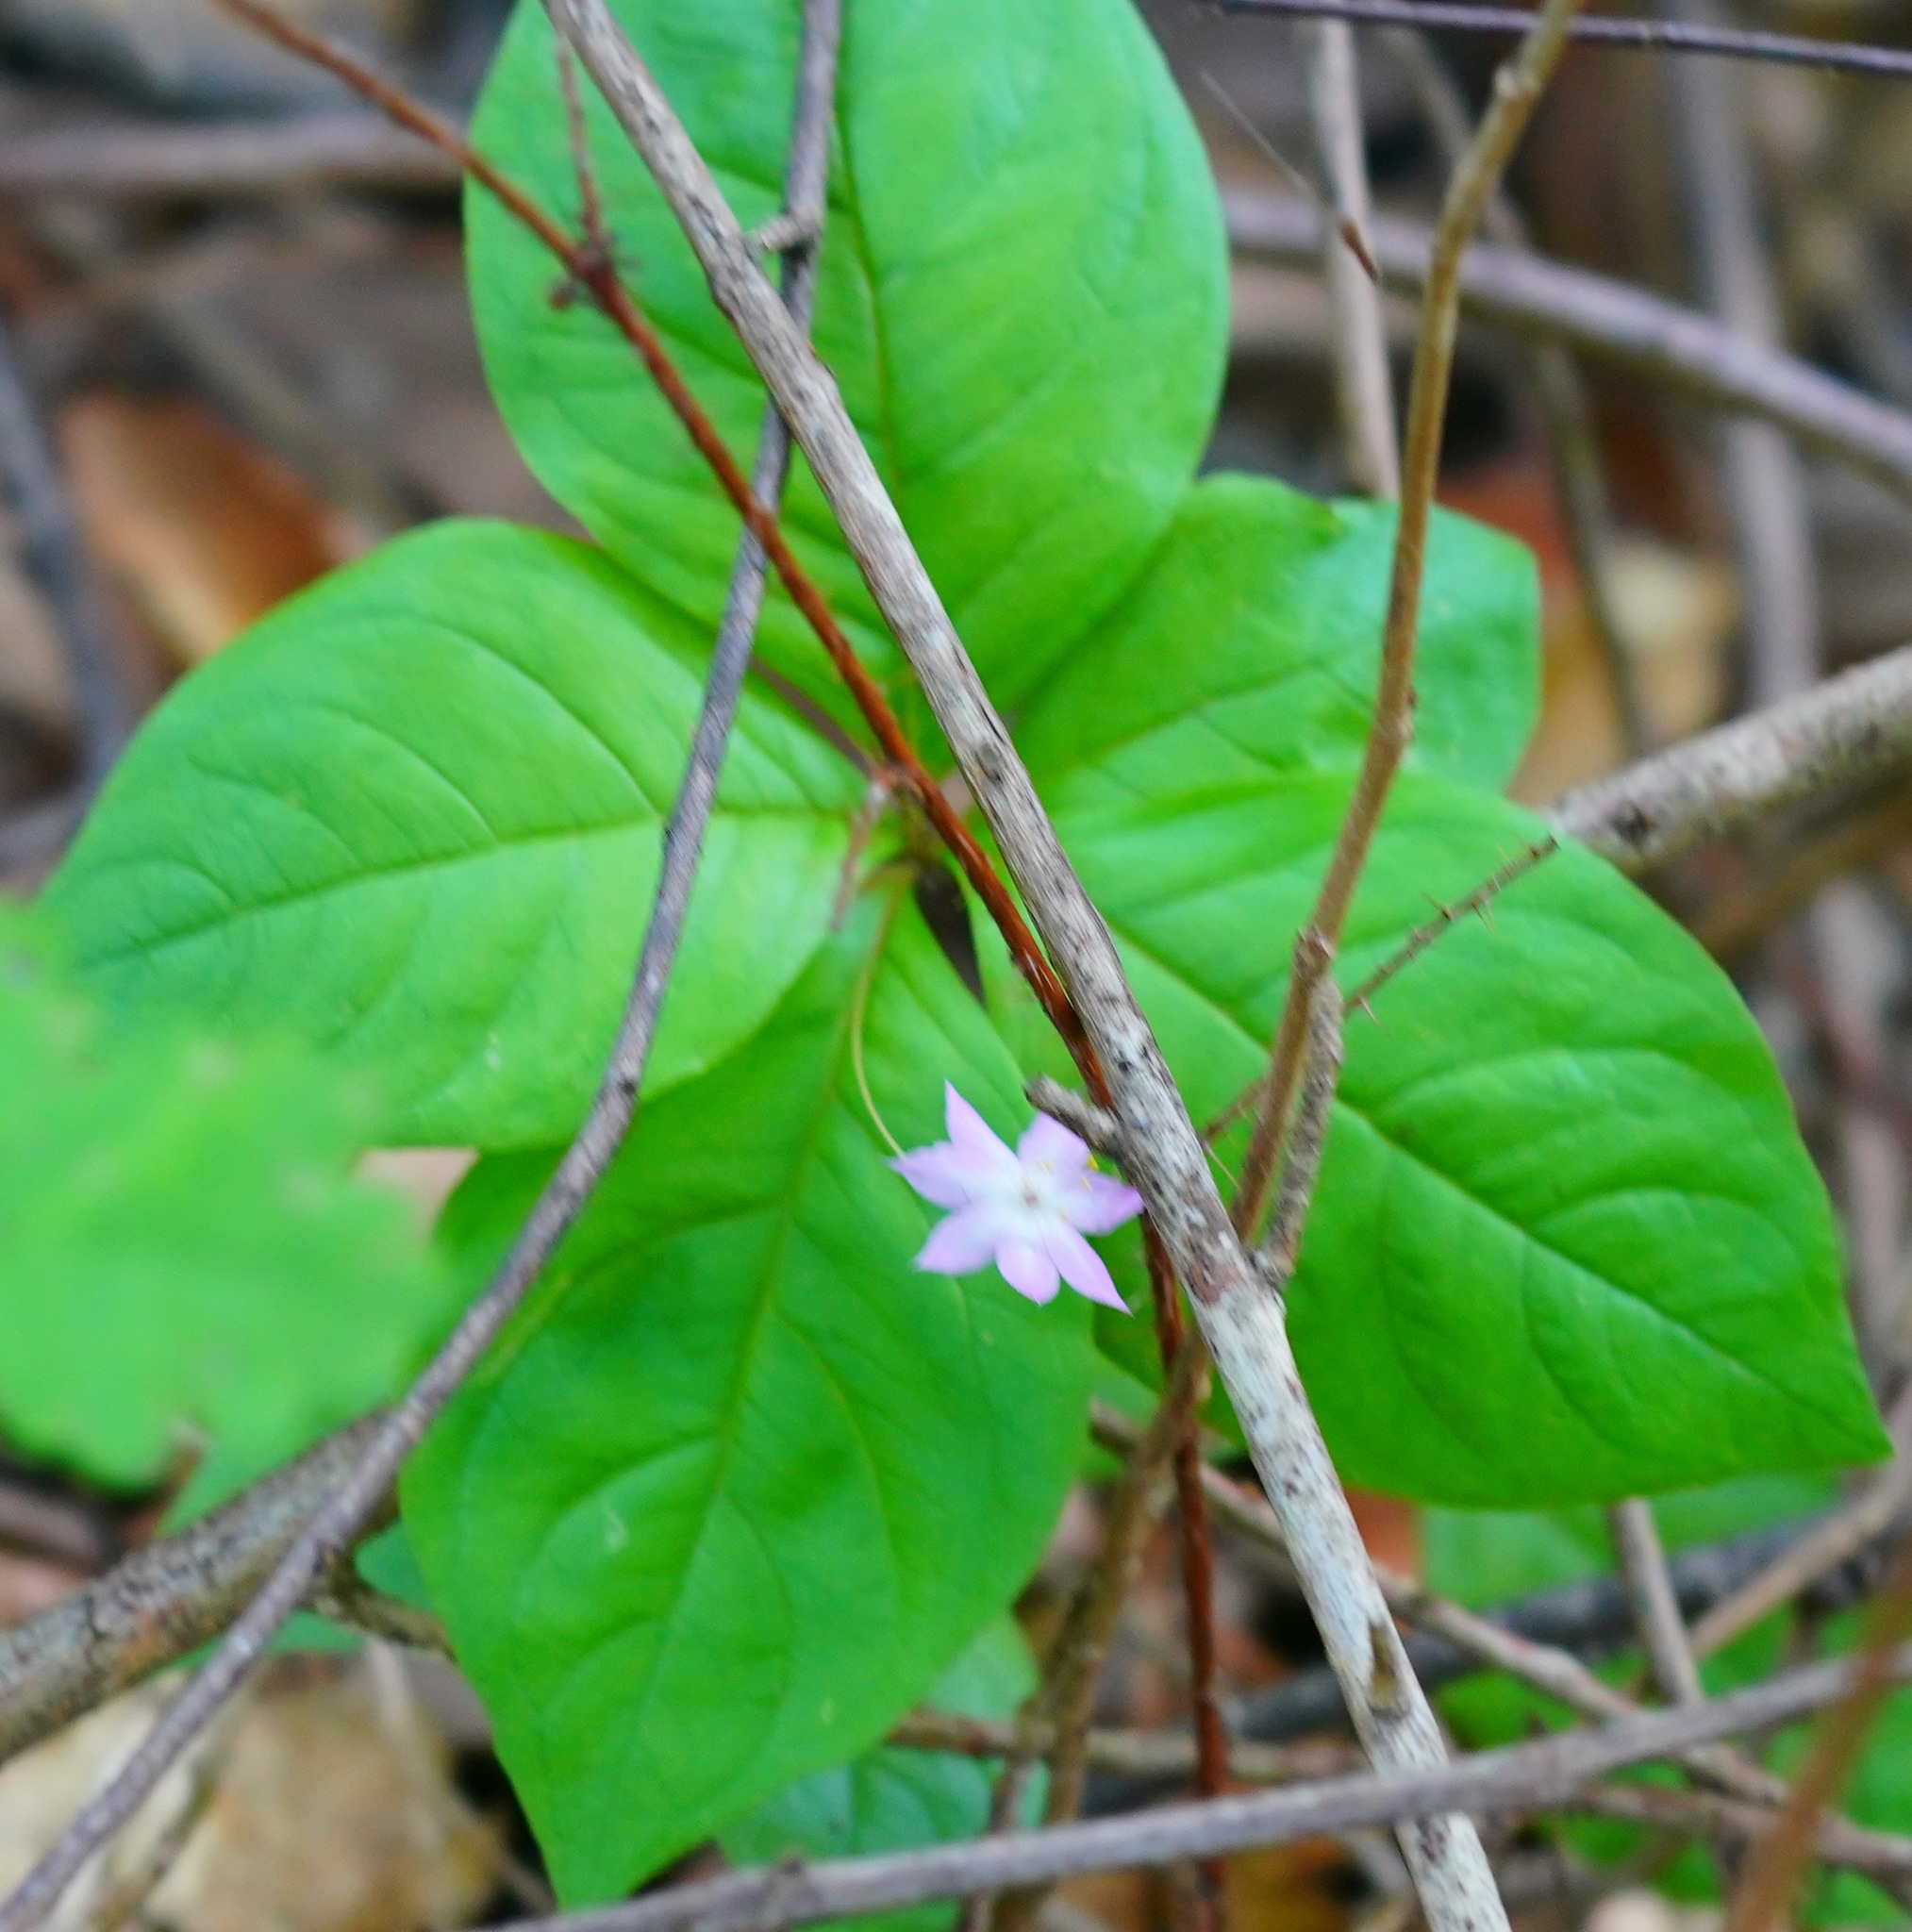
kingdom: Plantae
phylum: Tracheophyta
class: Magnoliopsida
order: Ericales
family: Primulaceae
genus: Lysimachia
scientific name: Lysimachia latifolia
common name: Pacific starflower
